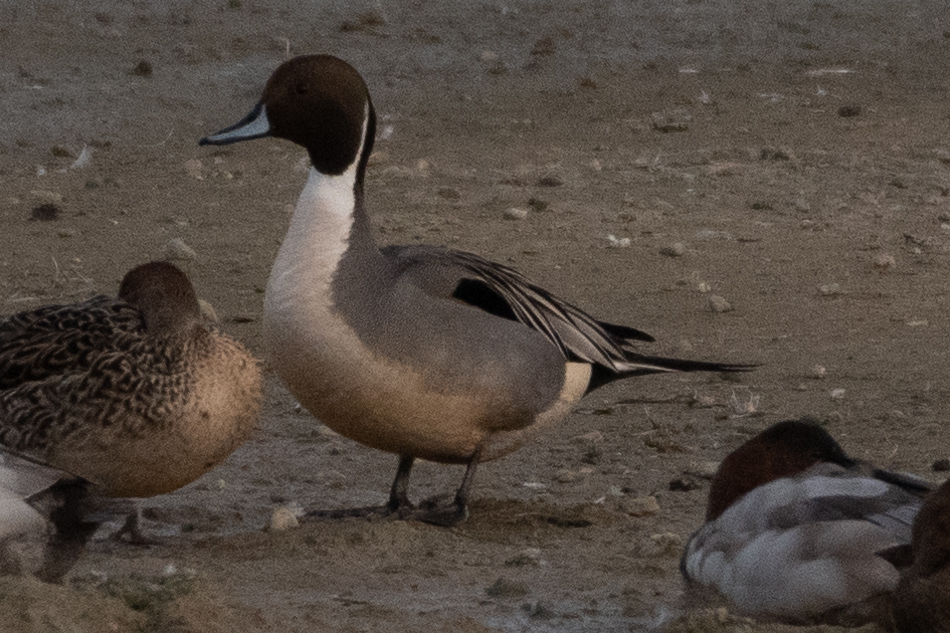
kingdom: Animalia
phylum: Chordata
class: Aves
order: Anseriformes
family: Anatidae
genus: Anas
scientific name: Anas acuta
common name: Northern pintail
